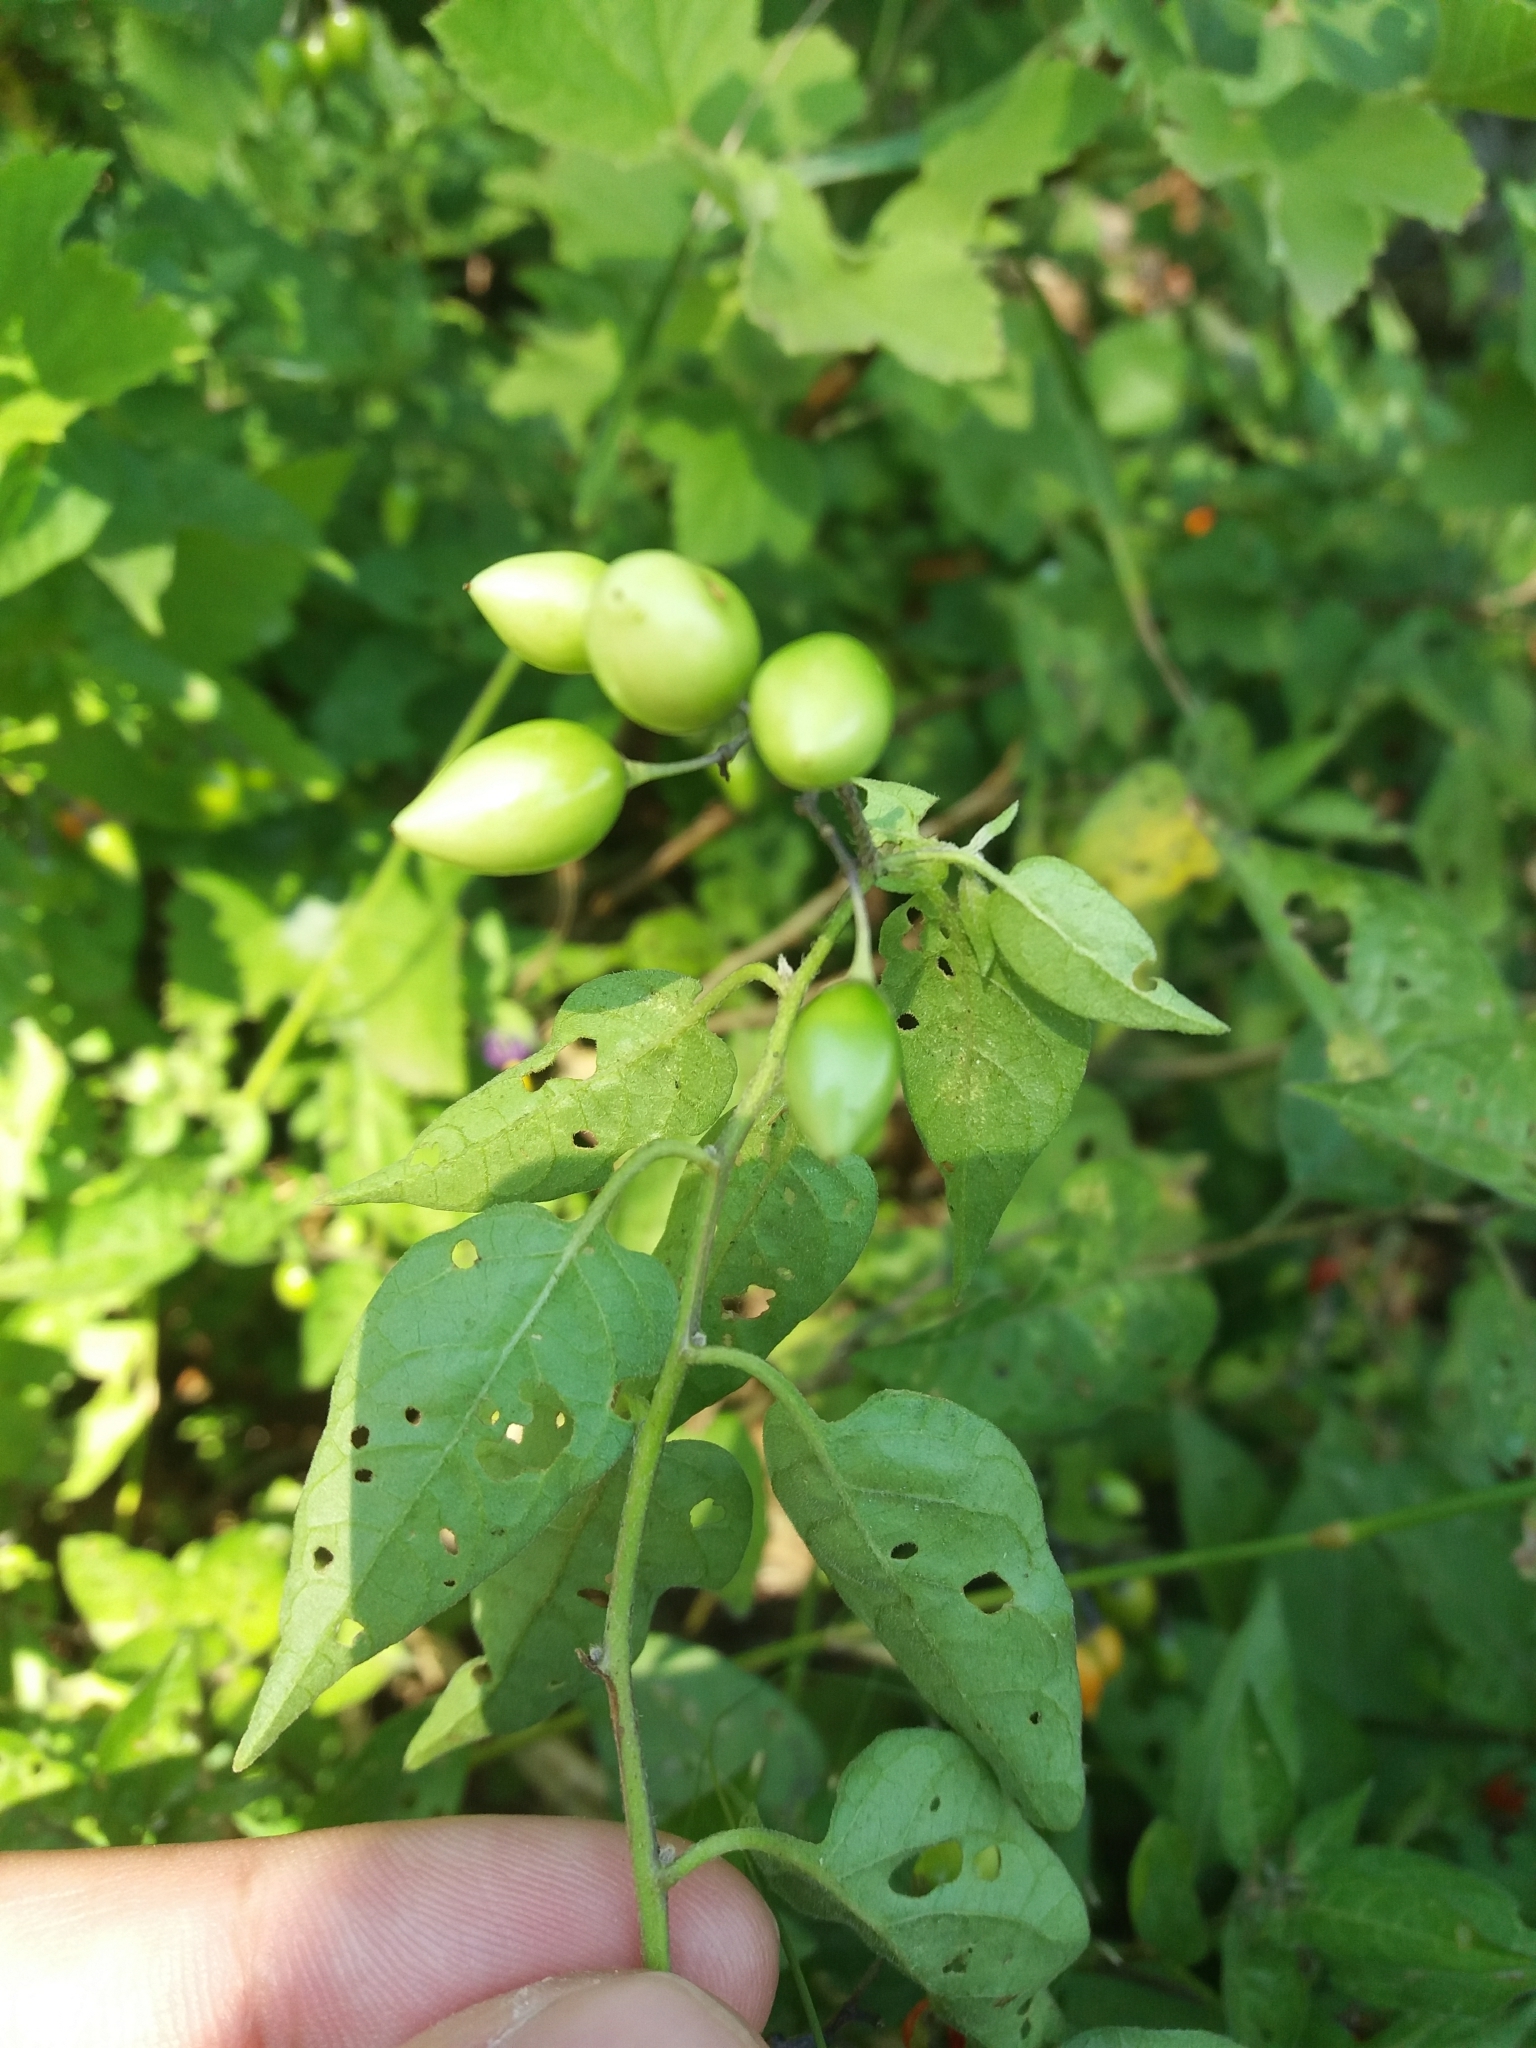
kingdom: Plantae
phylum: Tracheophyta
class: Magnoliopsida
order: Solanales
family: Solanaceae
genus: Solanum
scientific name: Solanum dulcamara
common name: Climbing nightshade
